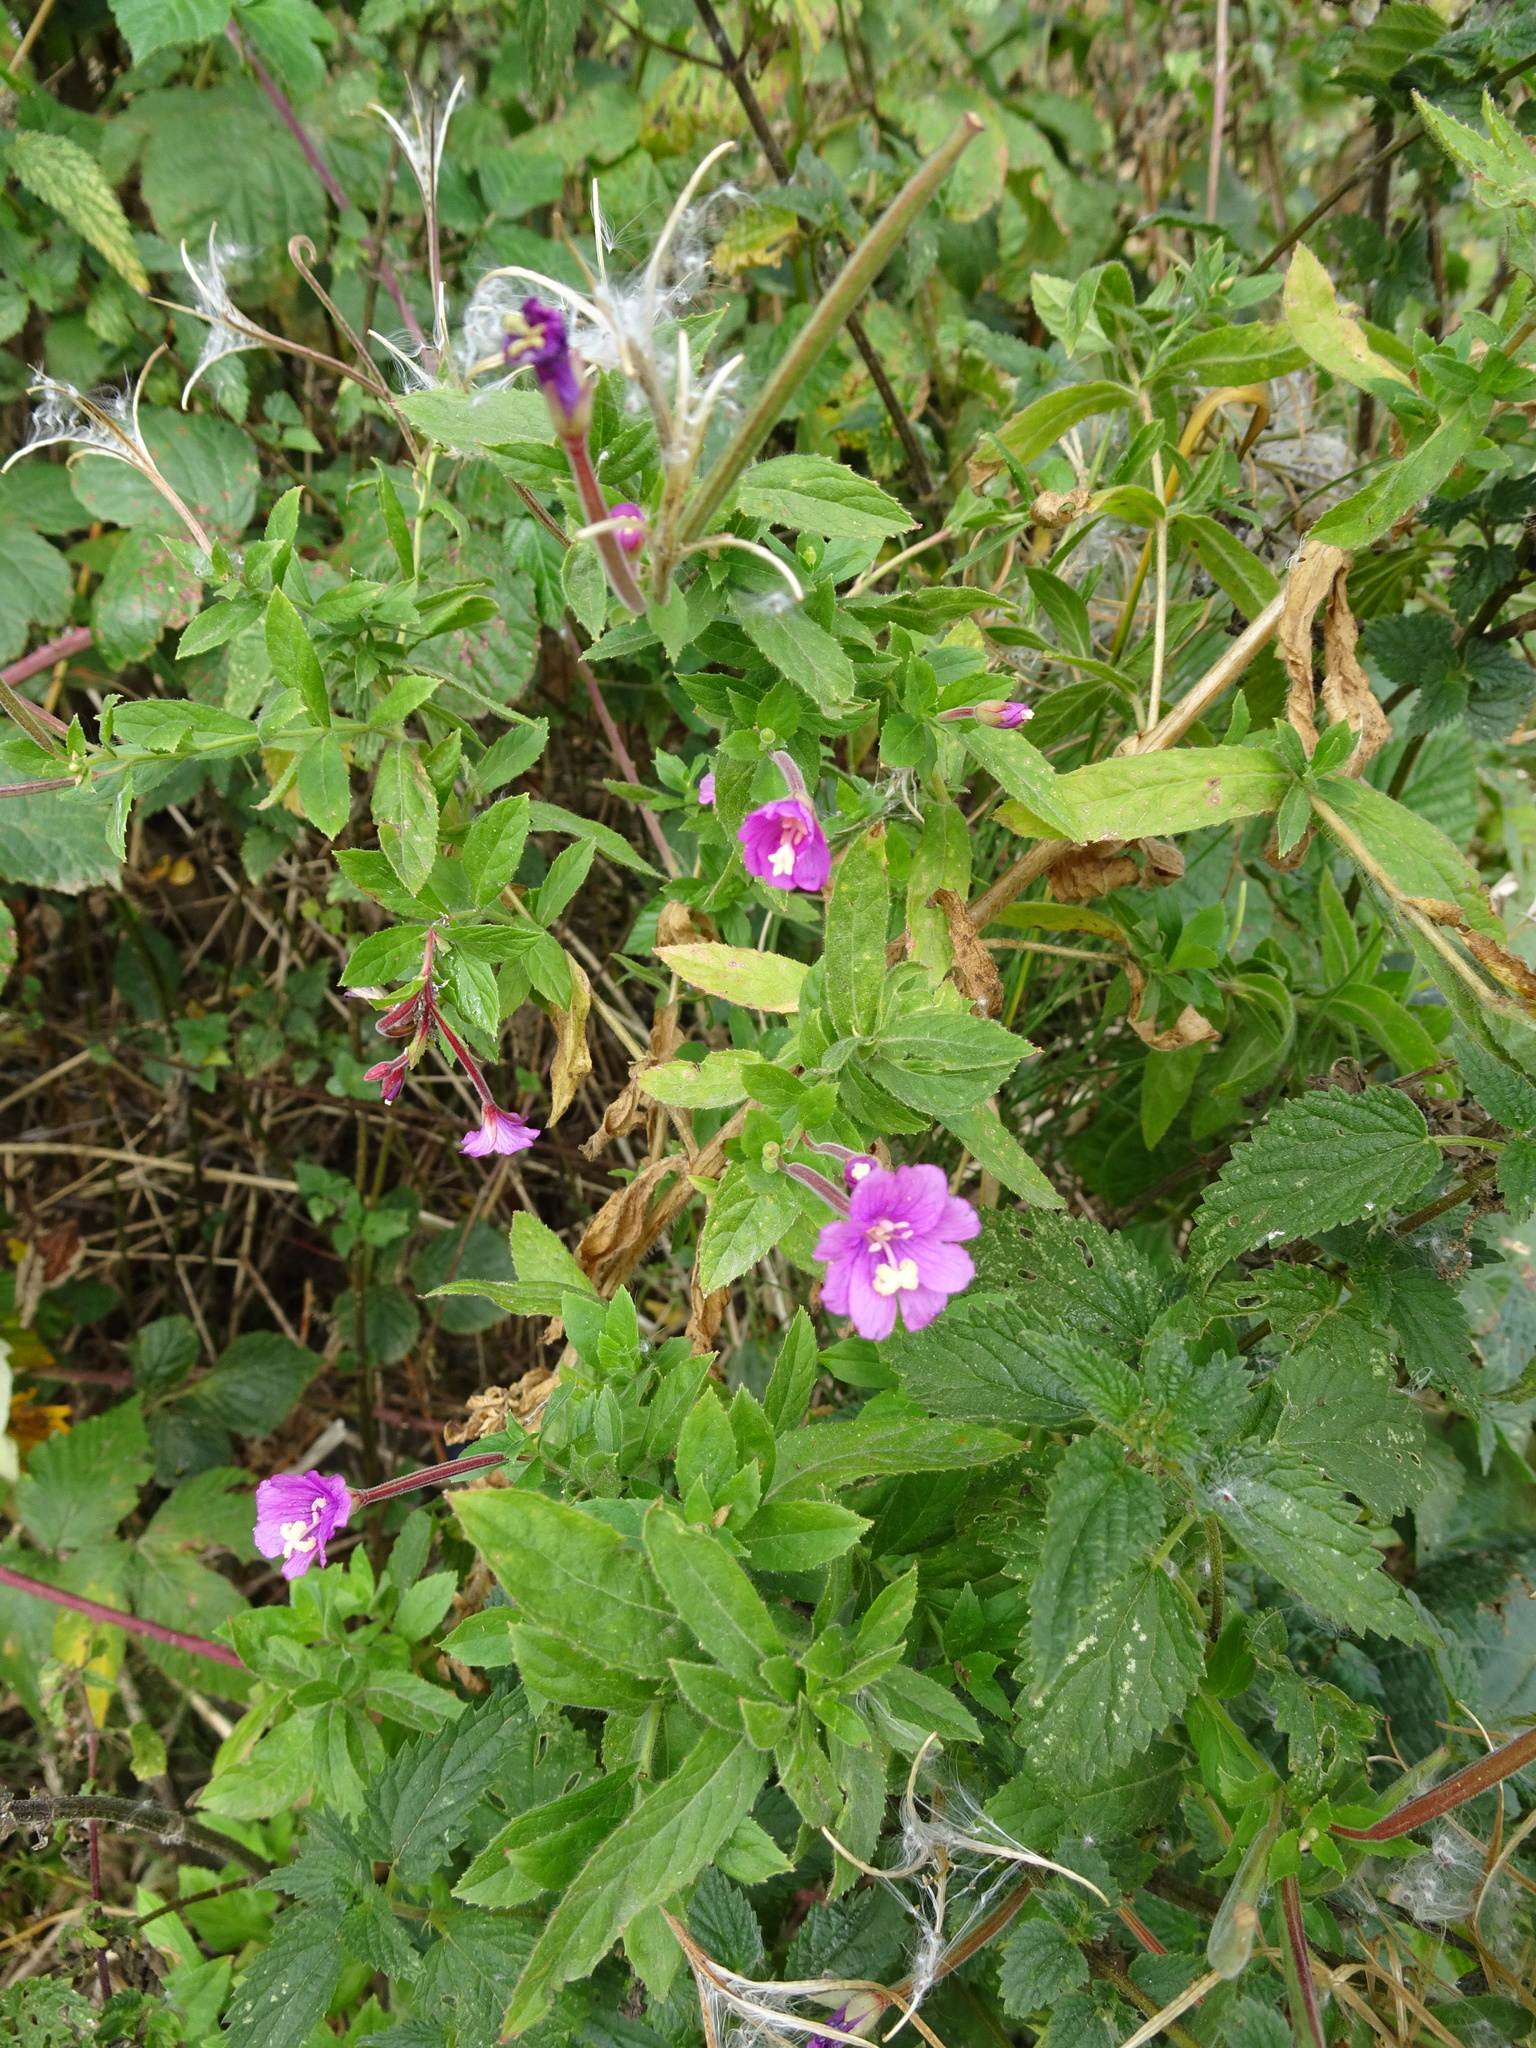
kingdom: Plantae
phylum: Tracheophyta
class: Magnoliopsida
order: Myrtales
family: Onagraceae
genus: Epilobium
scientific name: Epilobium hirsutum
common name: Great willowherb
